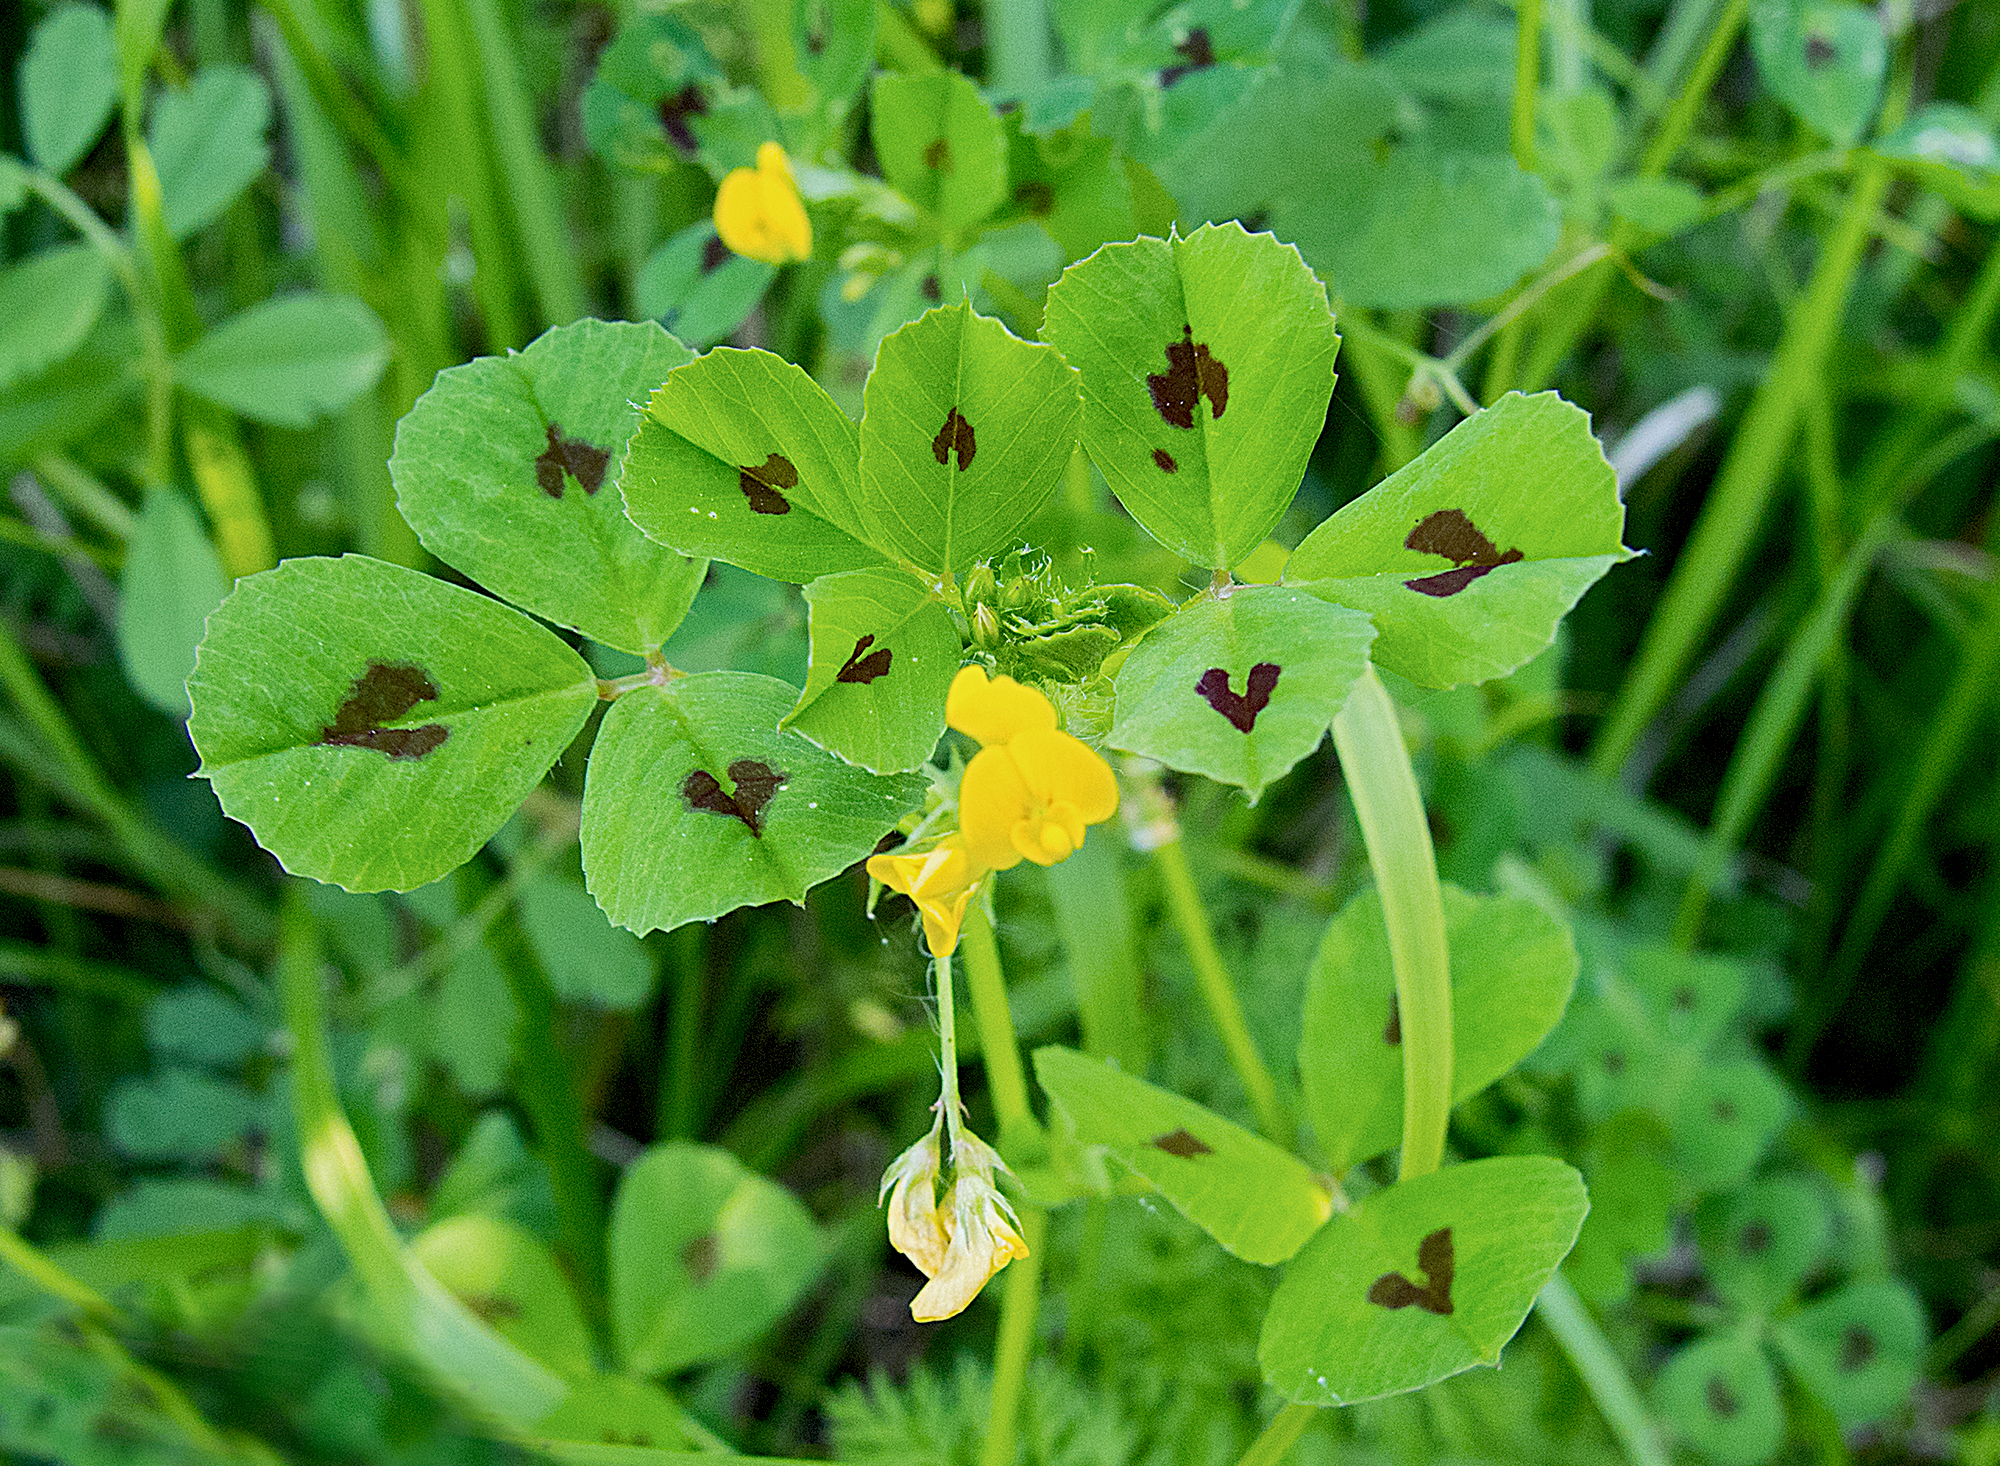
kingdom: Plantae
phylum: Tracheophyta
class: Magnoliopsida
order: Fabales
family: Fabaceae
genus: Medicago
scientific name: Medicago arabica
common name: Spotted medick
